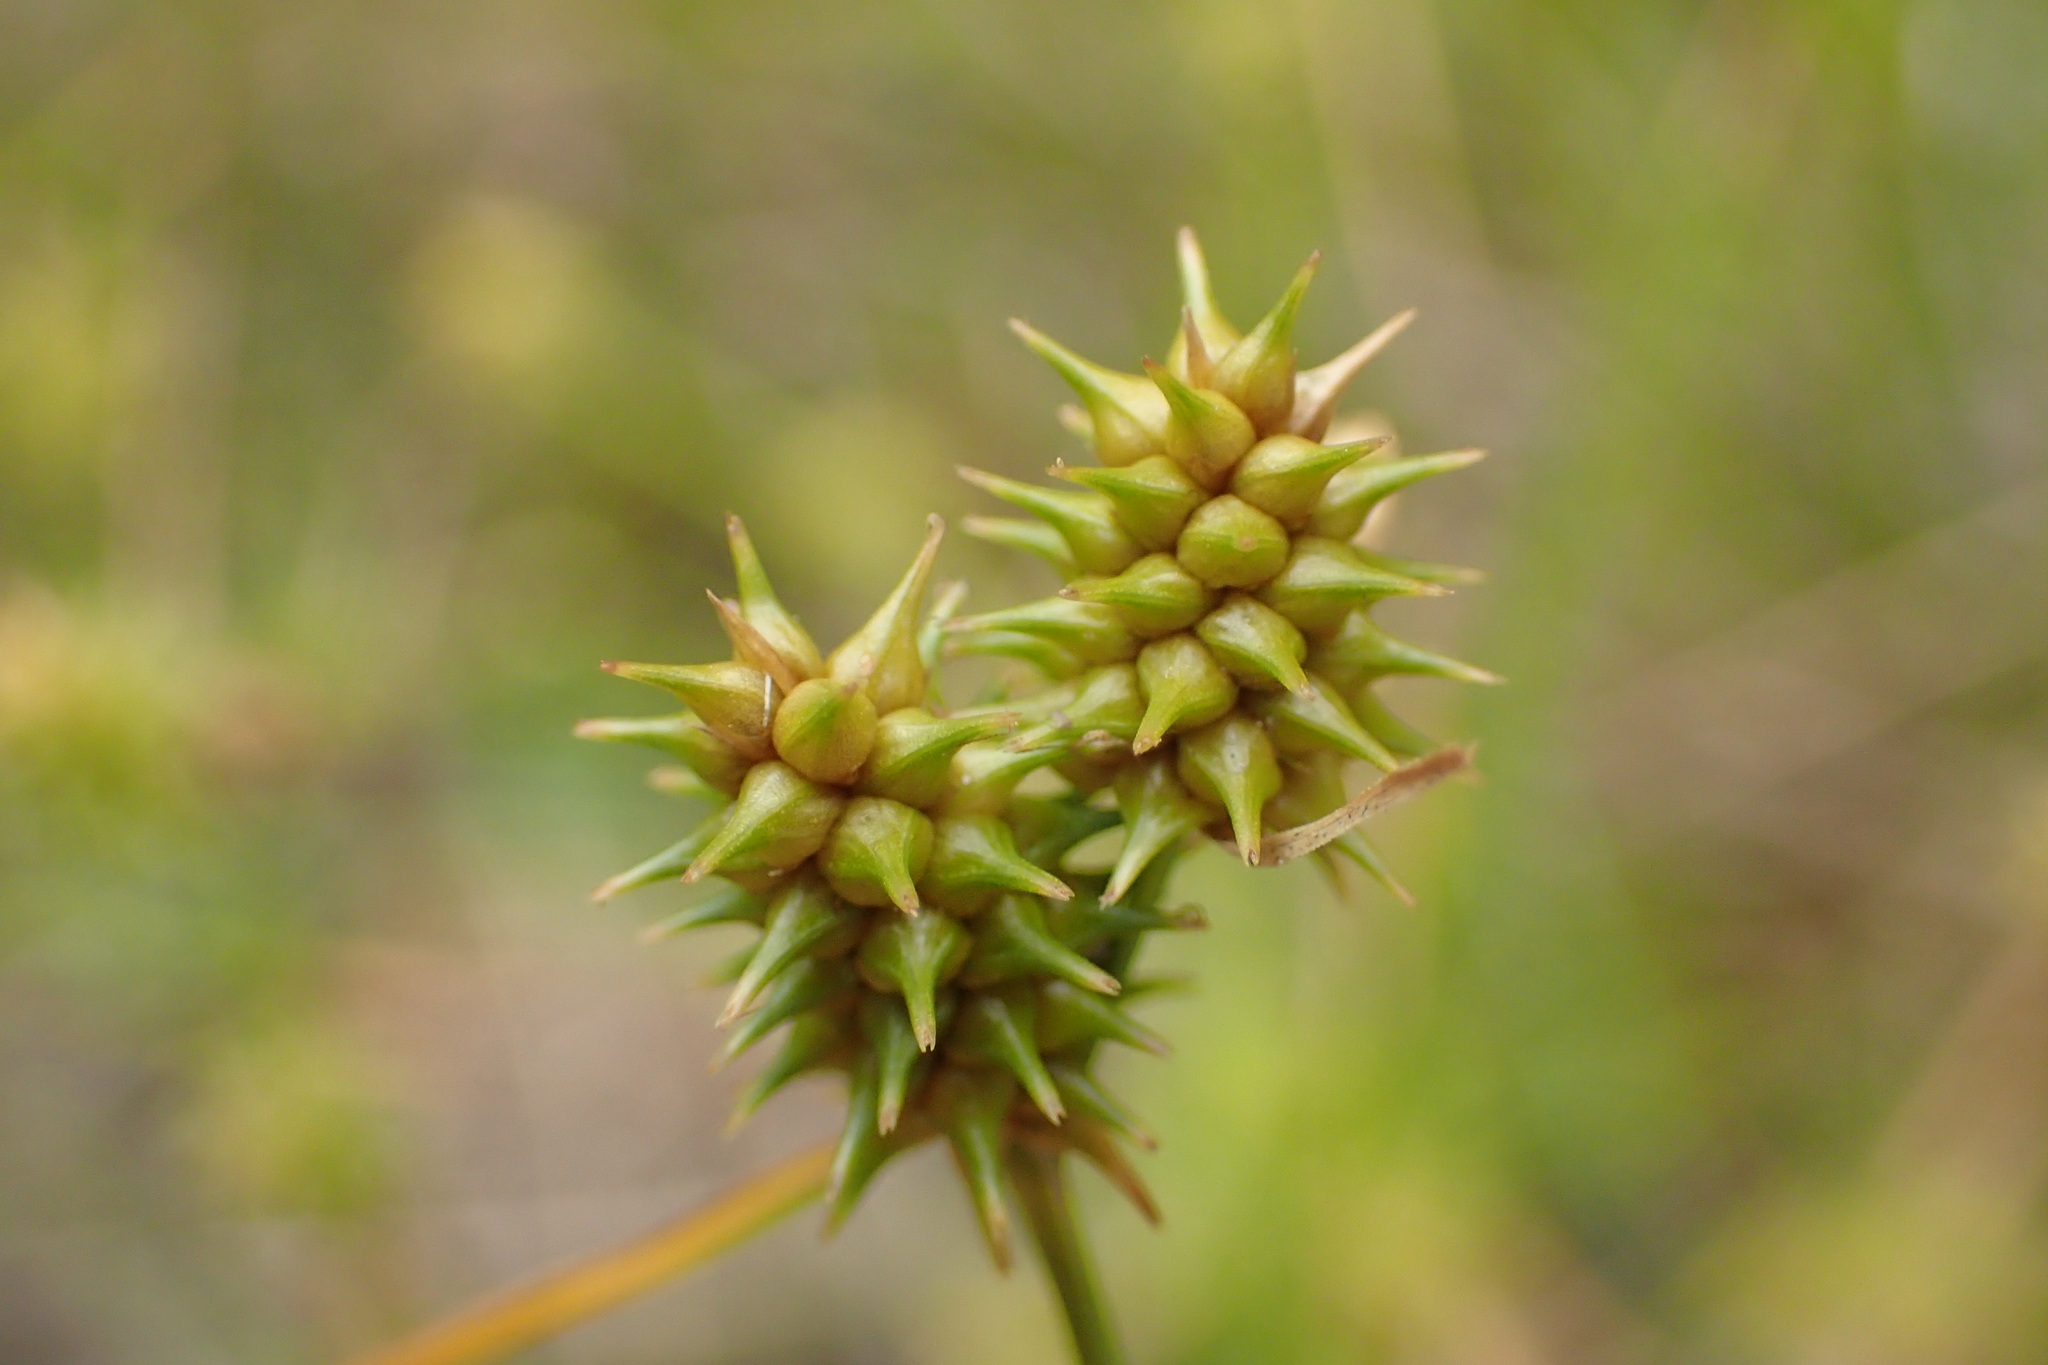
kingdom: Plantae
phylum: Tracheophyta
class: Liliopsida
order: Poales
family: Cyperaceae
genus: Carex
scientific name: Carex cryptolepis
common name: Northeastern sedge
